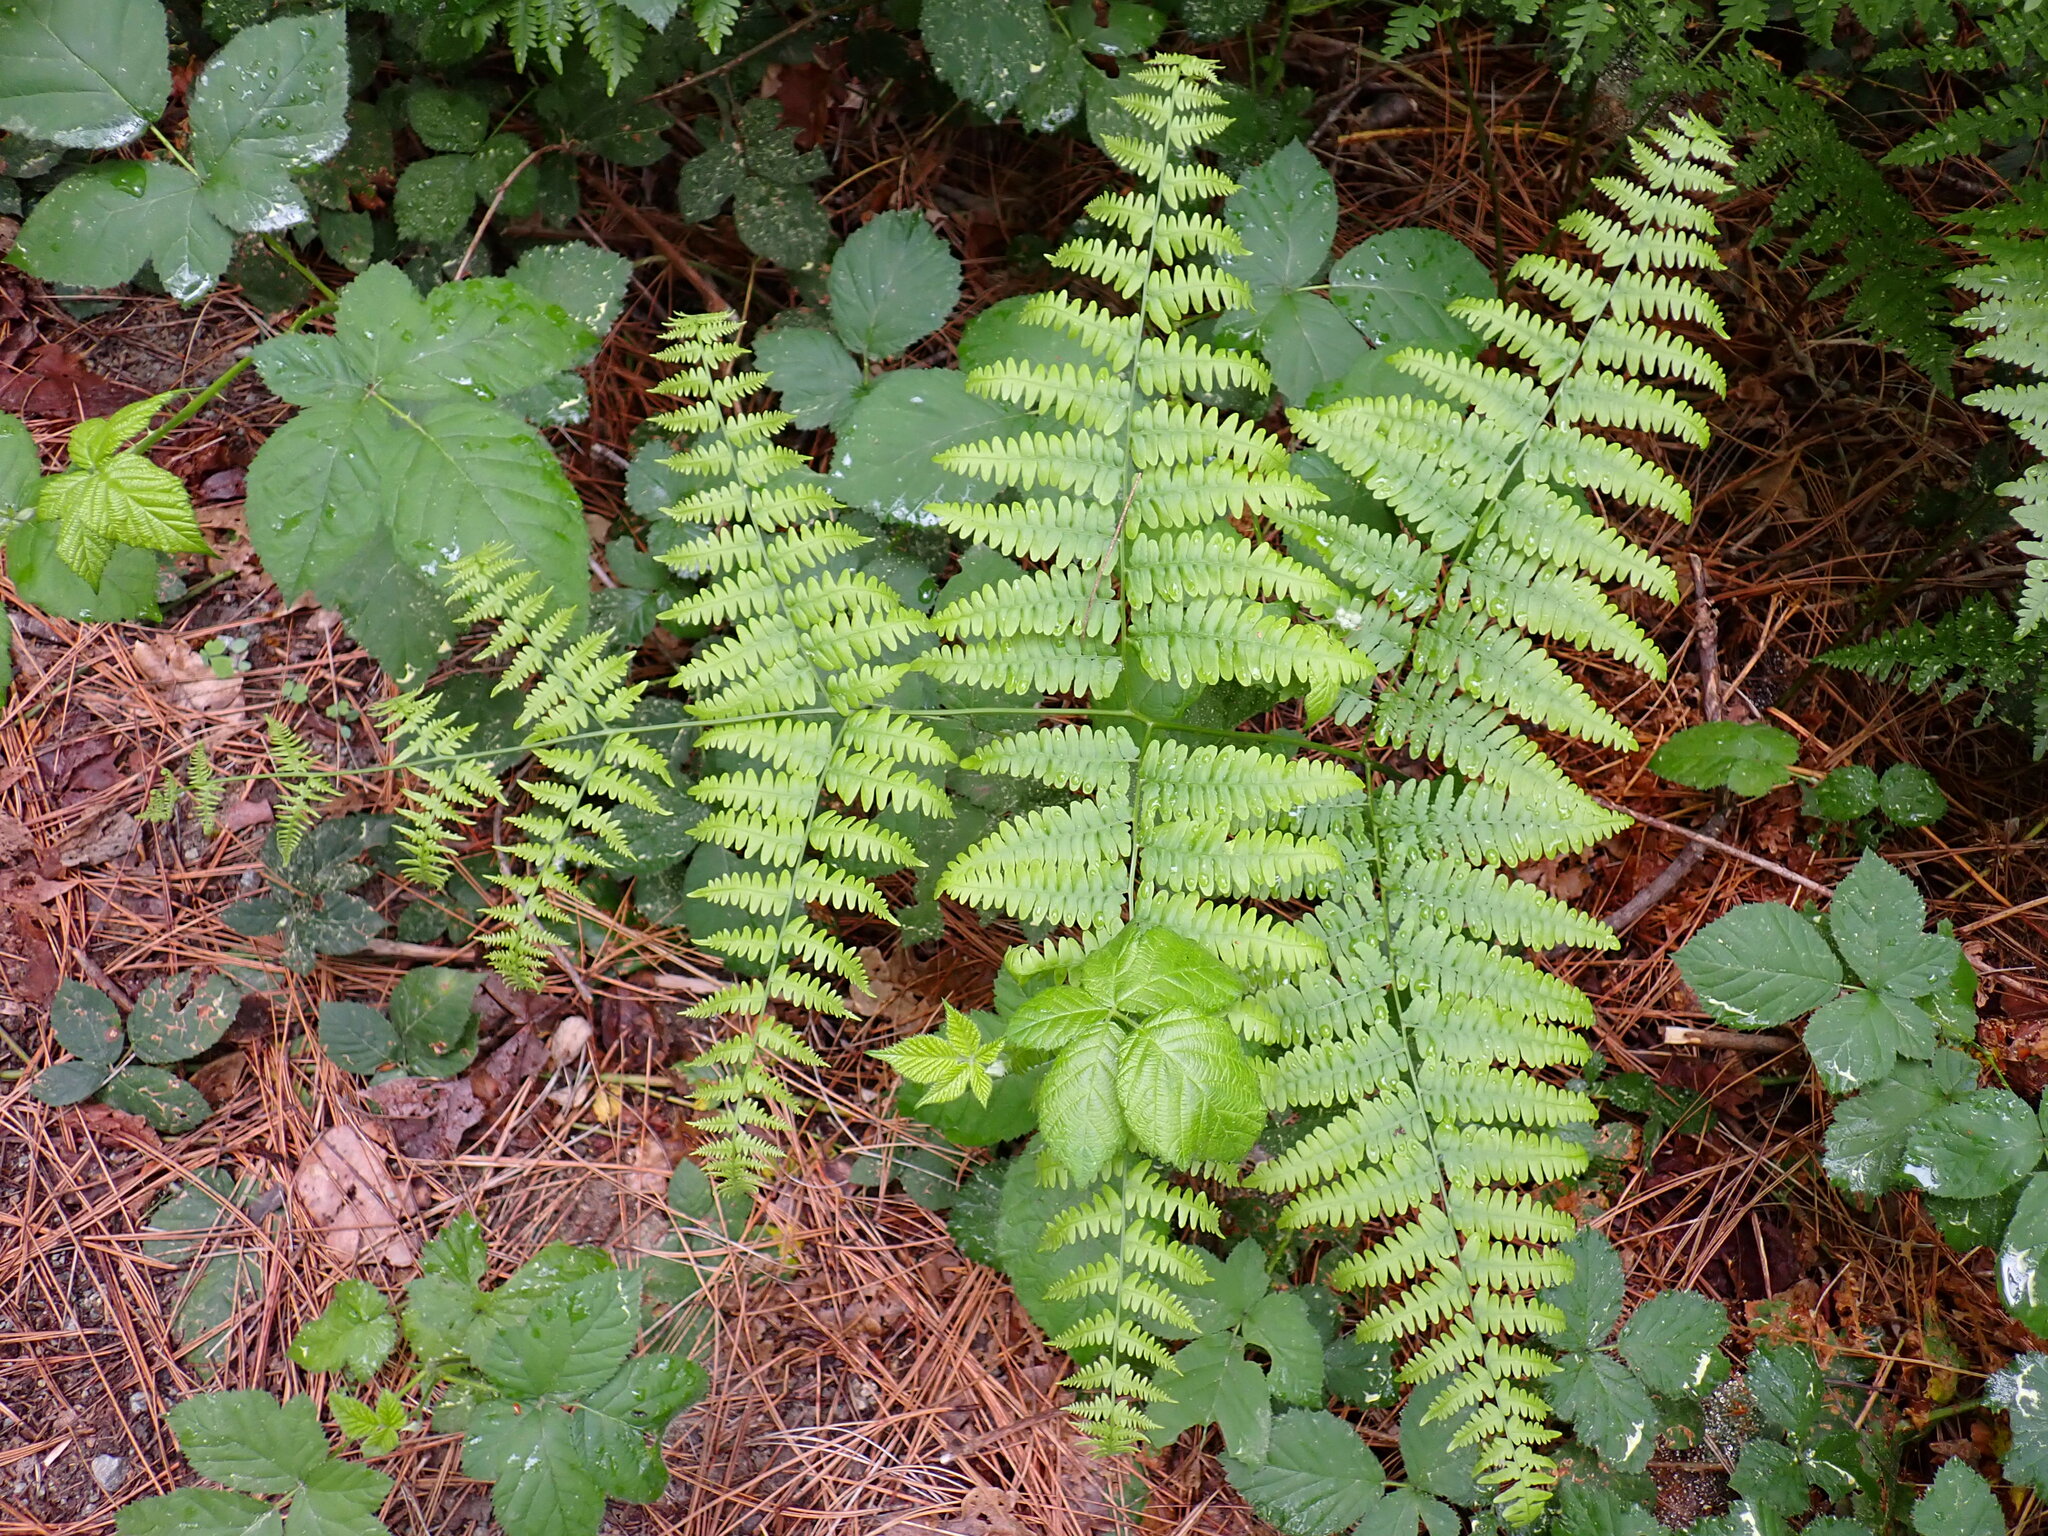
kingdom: Plantae
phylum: Tracheophyta
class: Polypodiopsida
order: Polypodiales
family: Dennstaedtiaceae
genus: Pteridium
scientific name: Pteridium aquilinum
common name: Bracken
